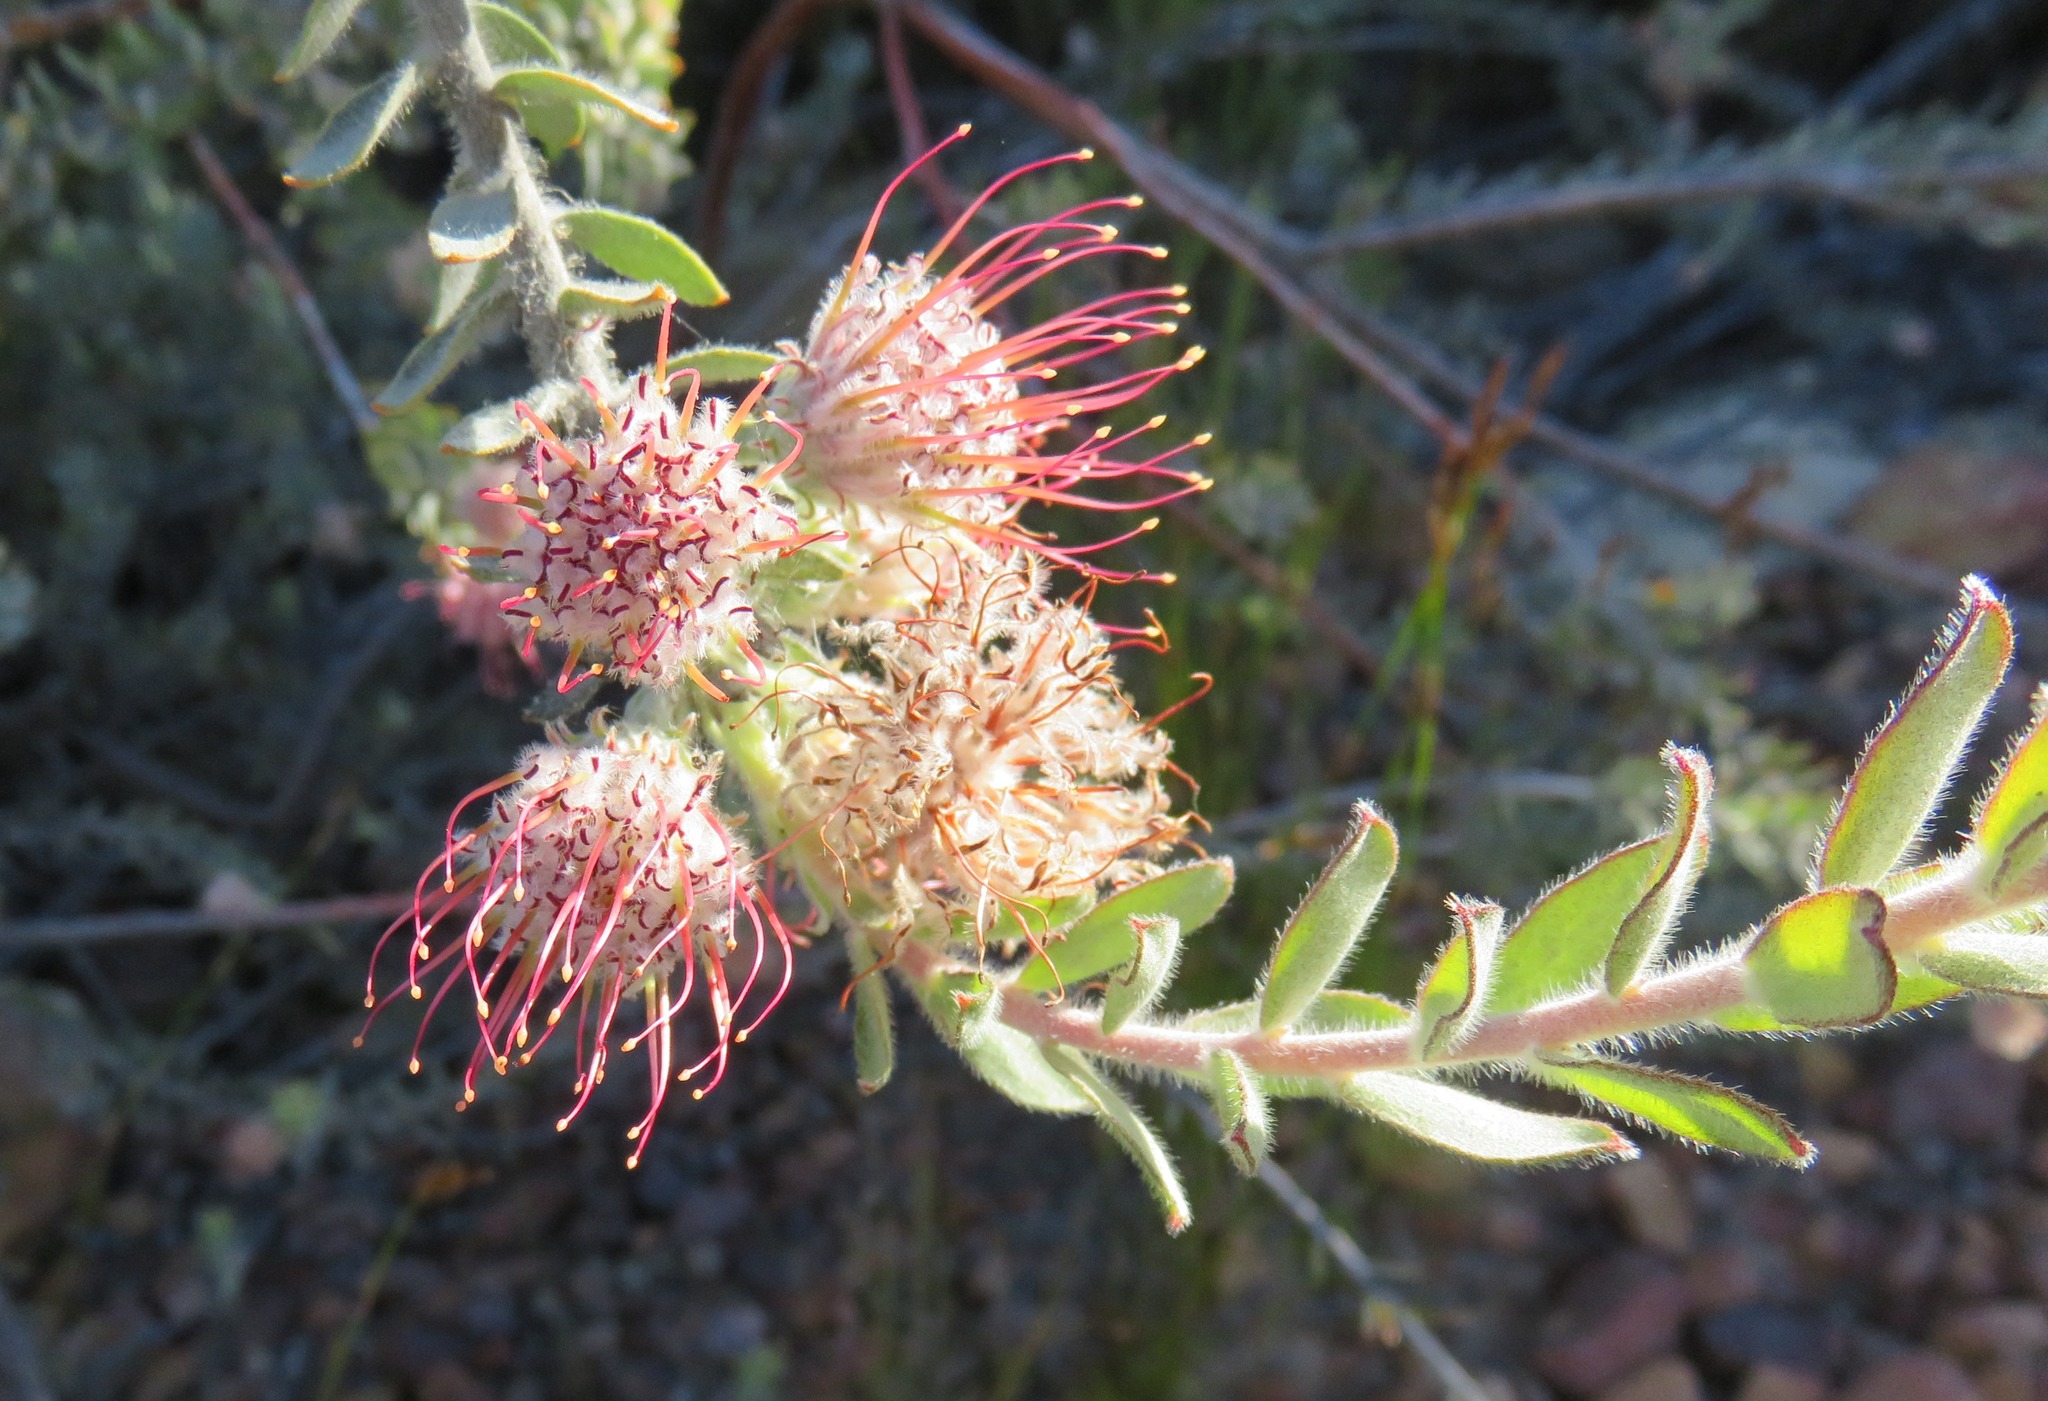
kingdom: Plantae
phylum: Tracheophyta
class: Magnoliopsida
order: Proteales
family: Proteaceae
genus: Leucospermum
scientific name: Leucospermum calligerum
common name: Arid pincushion
